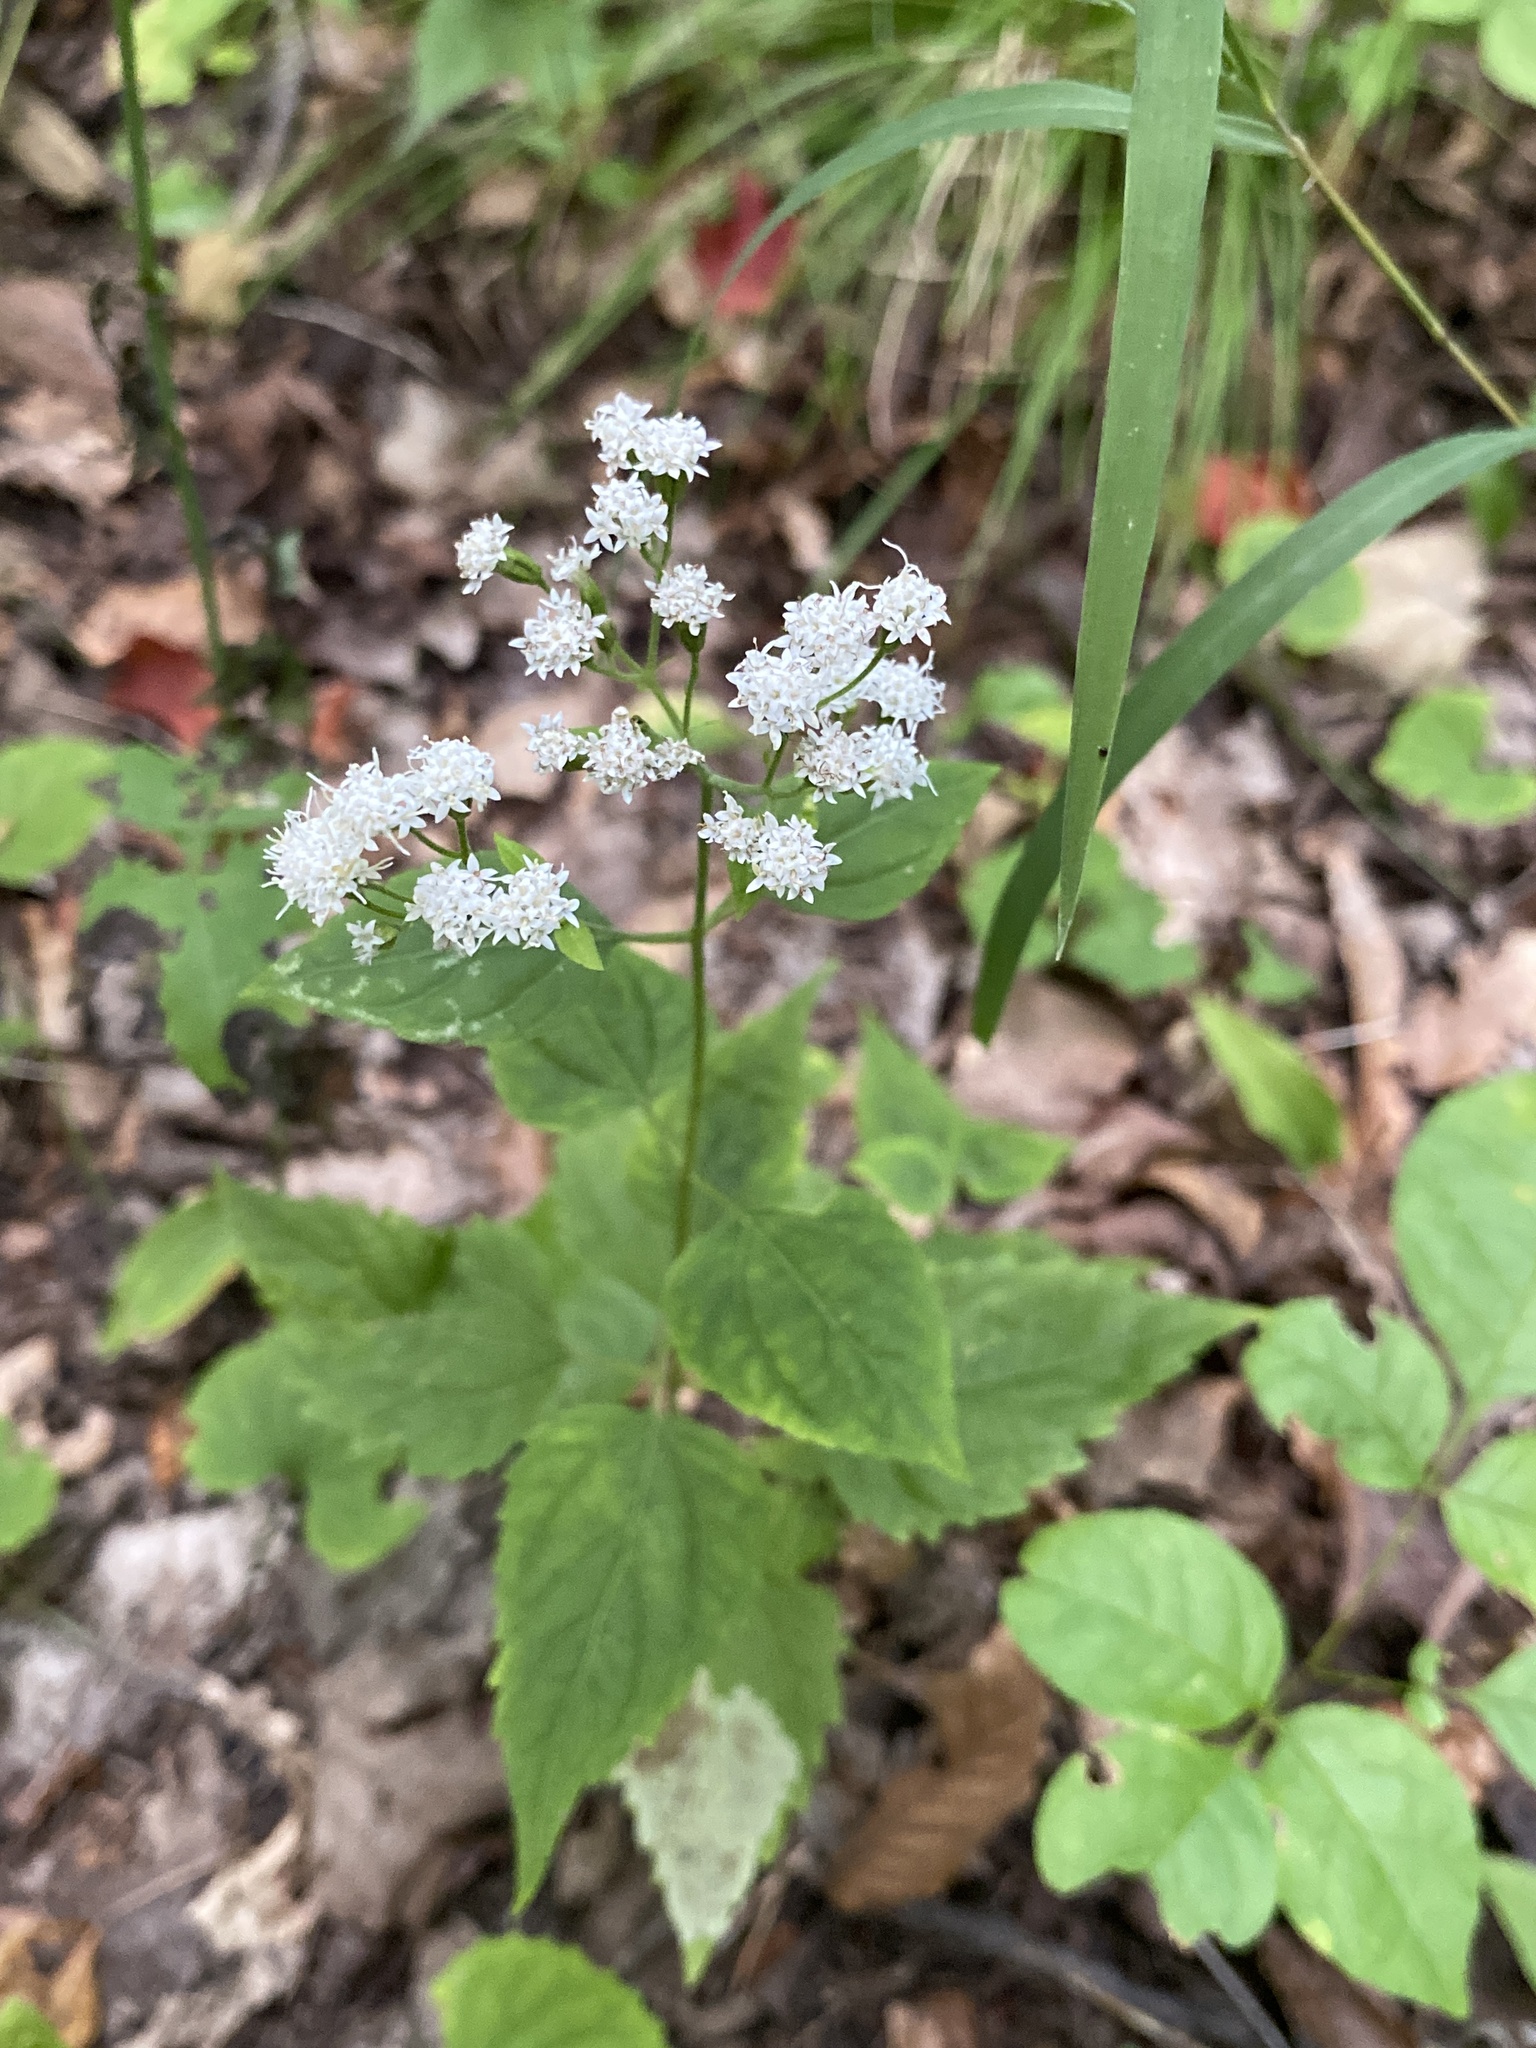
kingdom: Plantae
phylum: Tracheophyta
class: Magnoliopsida
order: Asterales
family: Asteraceae
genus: Ageratina
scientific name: Ageratina altissima
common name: White snakeroot
